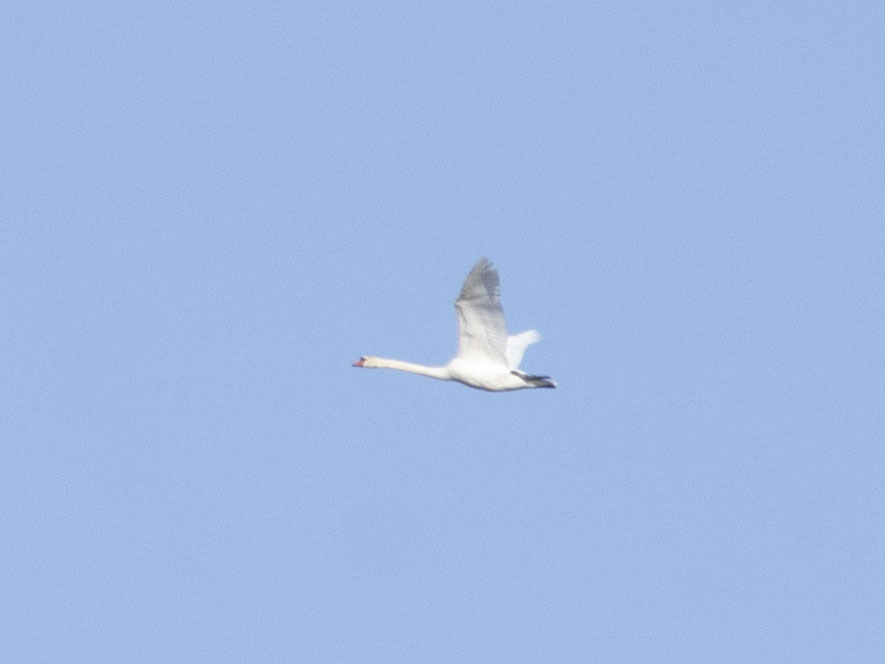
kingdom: Animalia
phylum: Chordata
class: Aves
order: Anseriformes
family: Anatidae
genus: Cygnus
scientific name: Cygnus olor
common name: Mute swan
